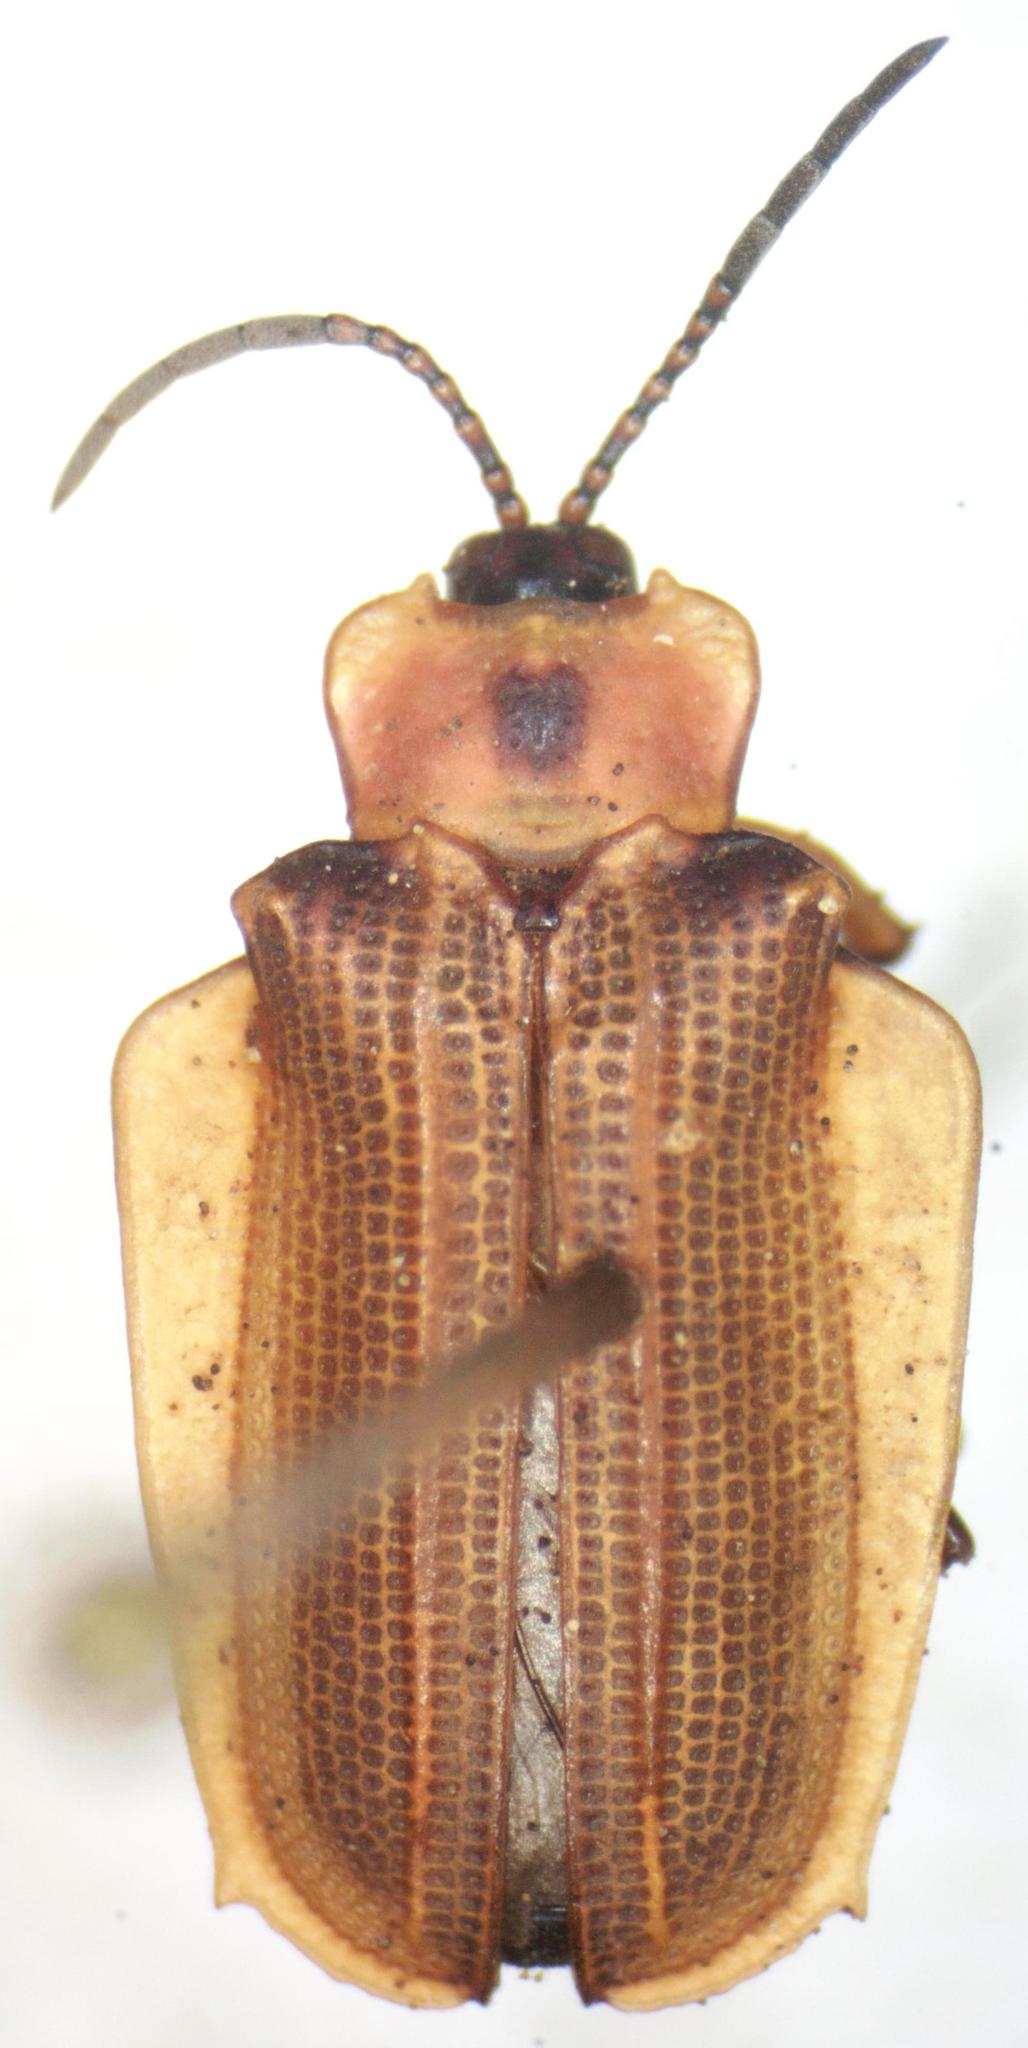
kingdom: Animalia
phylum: Arthropoda
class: Insecta
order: Coleoptera
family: Chrysomelidae
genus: Sceloenopla
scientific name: Sceloenopla lampyridiformis
